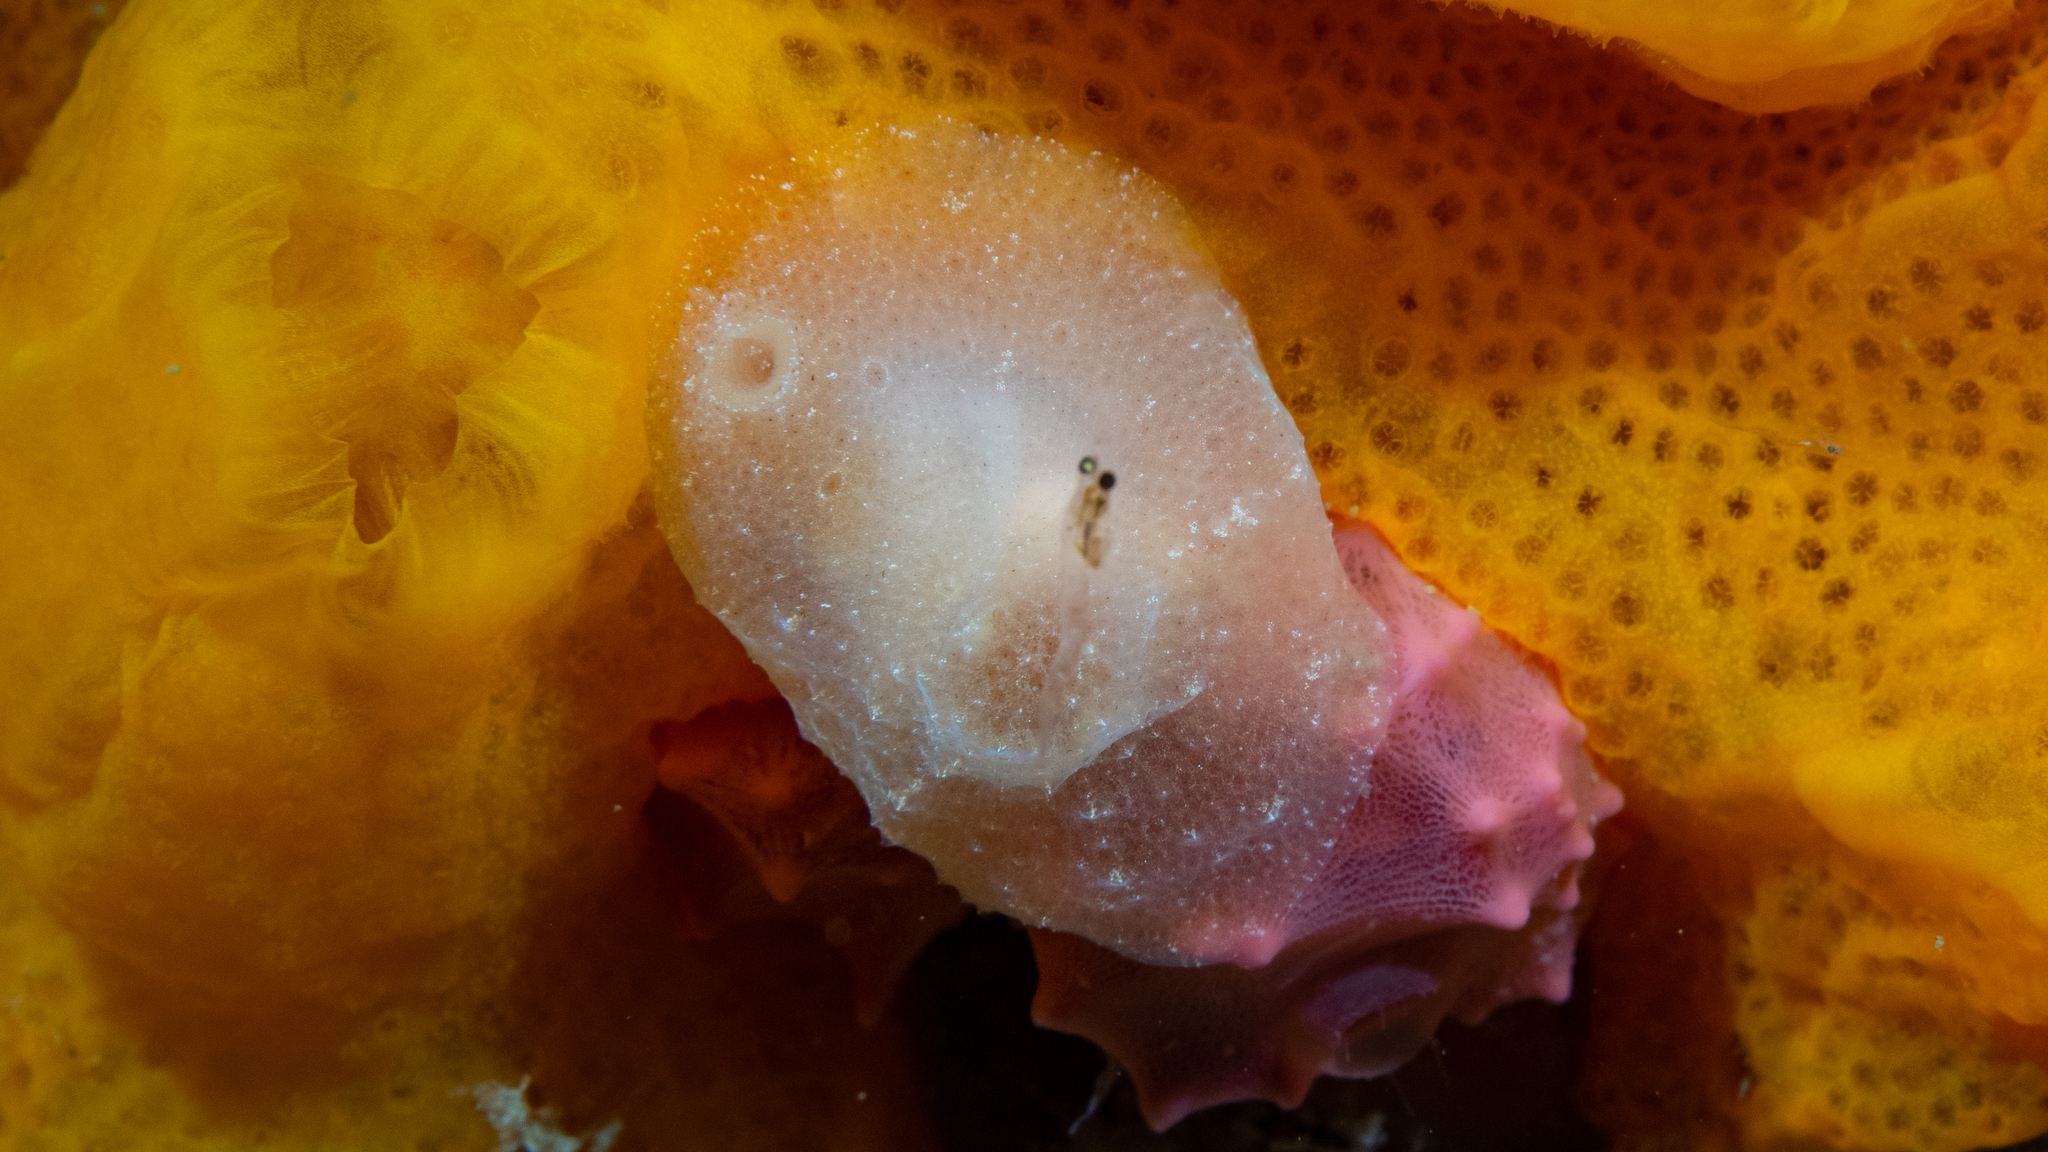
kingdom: Animalia
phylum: Mollusca
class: Gastropoda
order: Littorinimorpha
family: Velutinidae
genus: Lamellaria
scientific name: Lamellaria ophione
